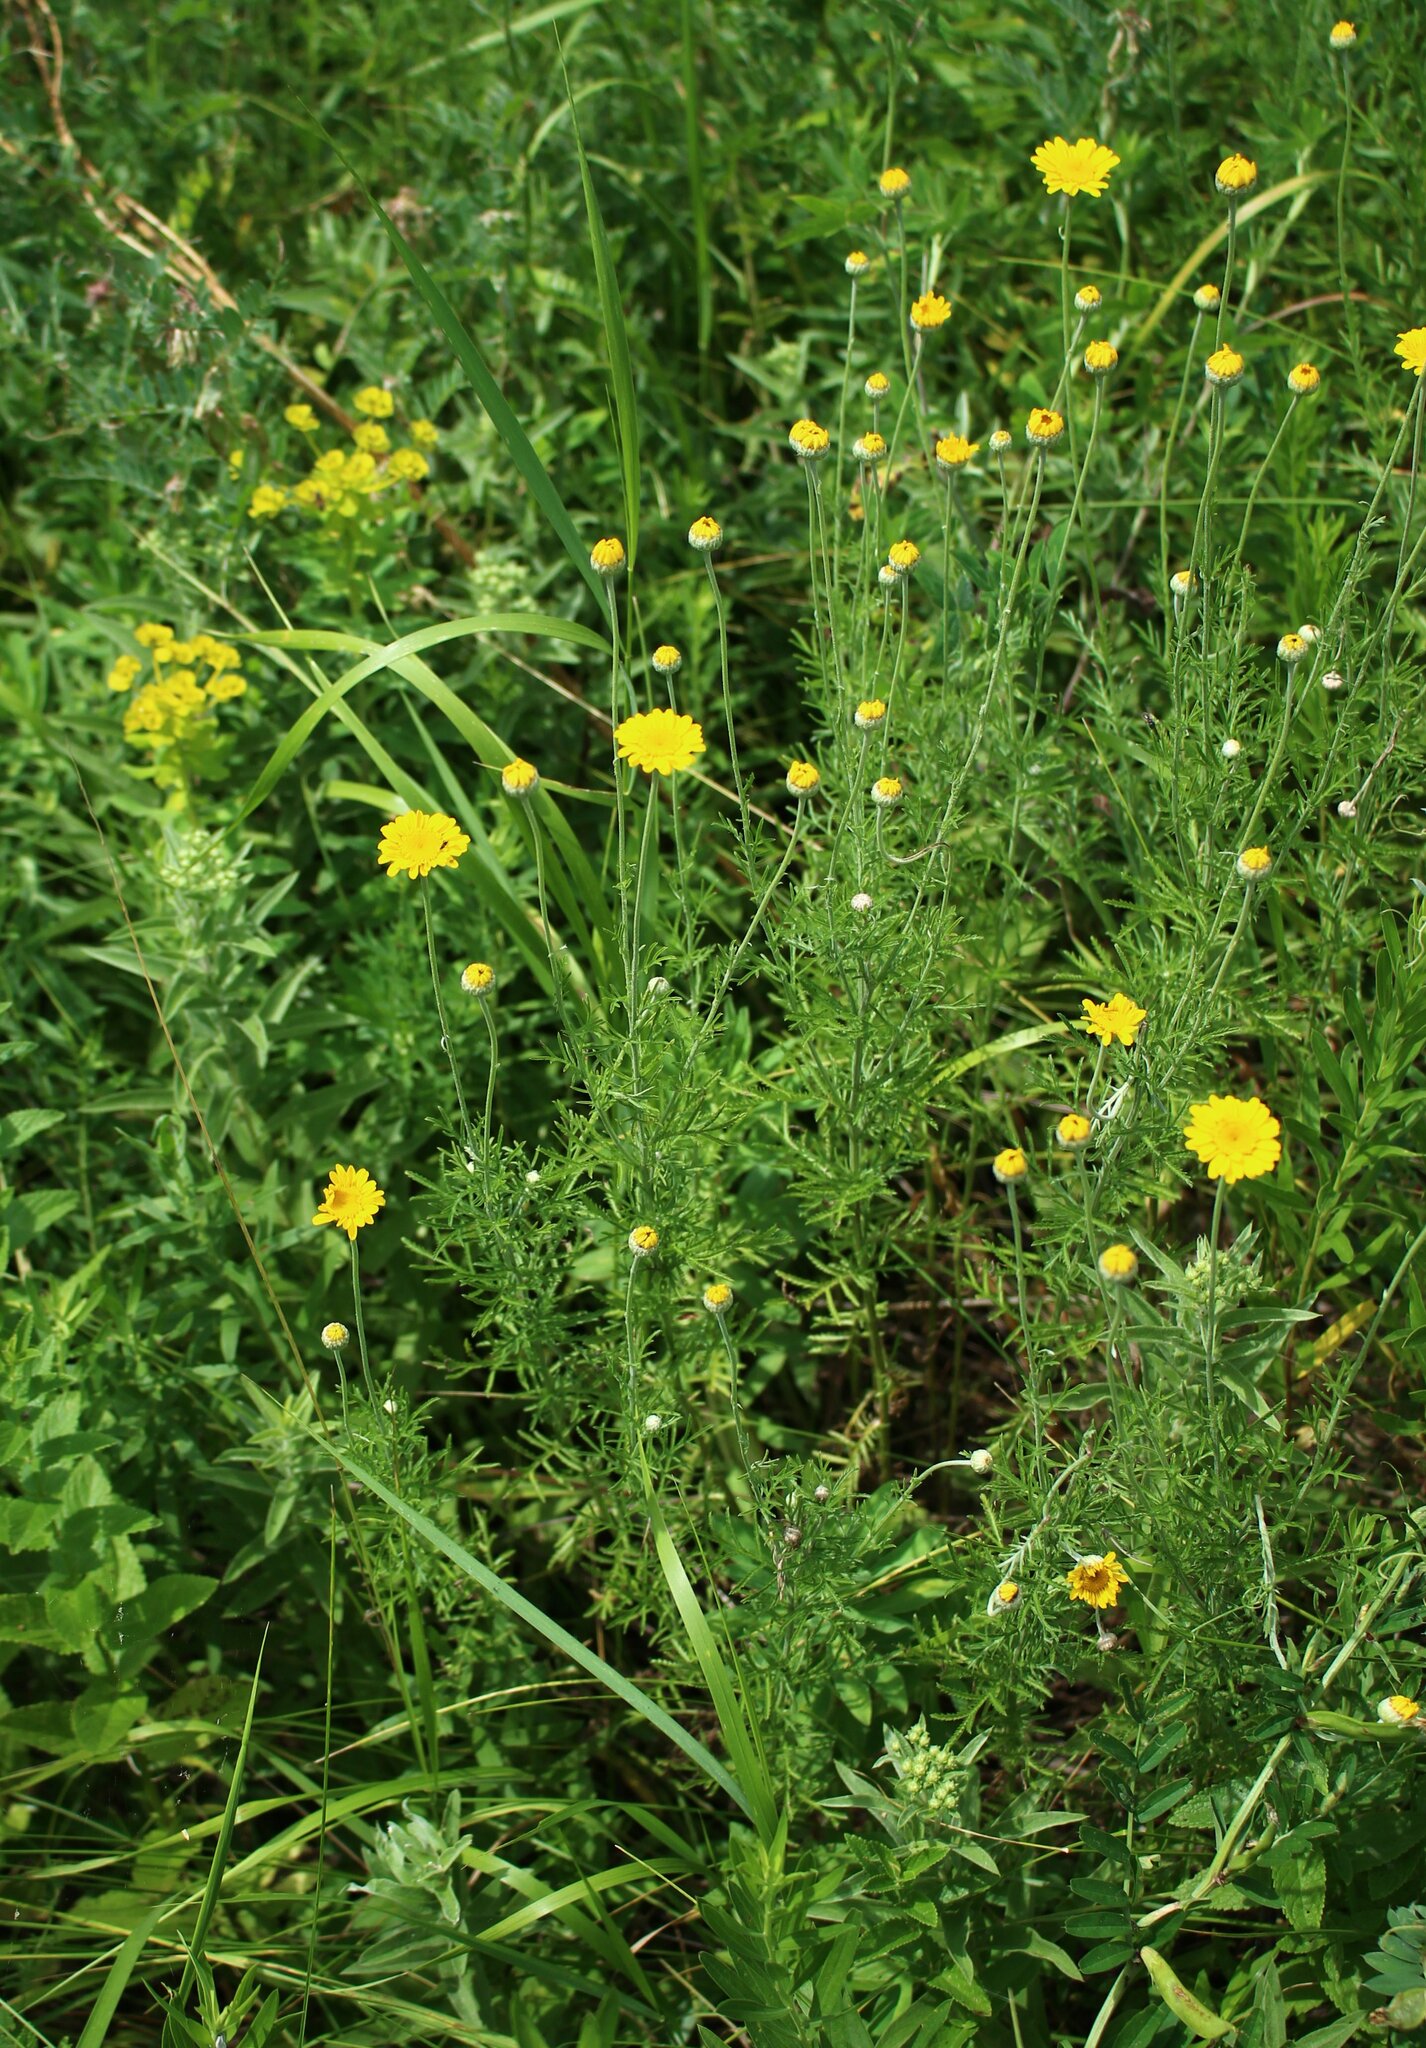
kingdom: Plantae
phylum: Tracheophyta
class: Magnoliopsida
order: Asterales
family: Asteraceae
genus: Cota
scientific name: Cota tinctoria
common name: Golden chamomile
